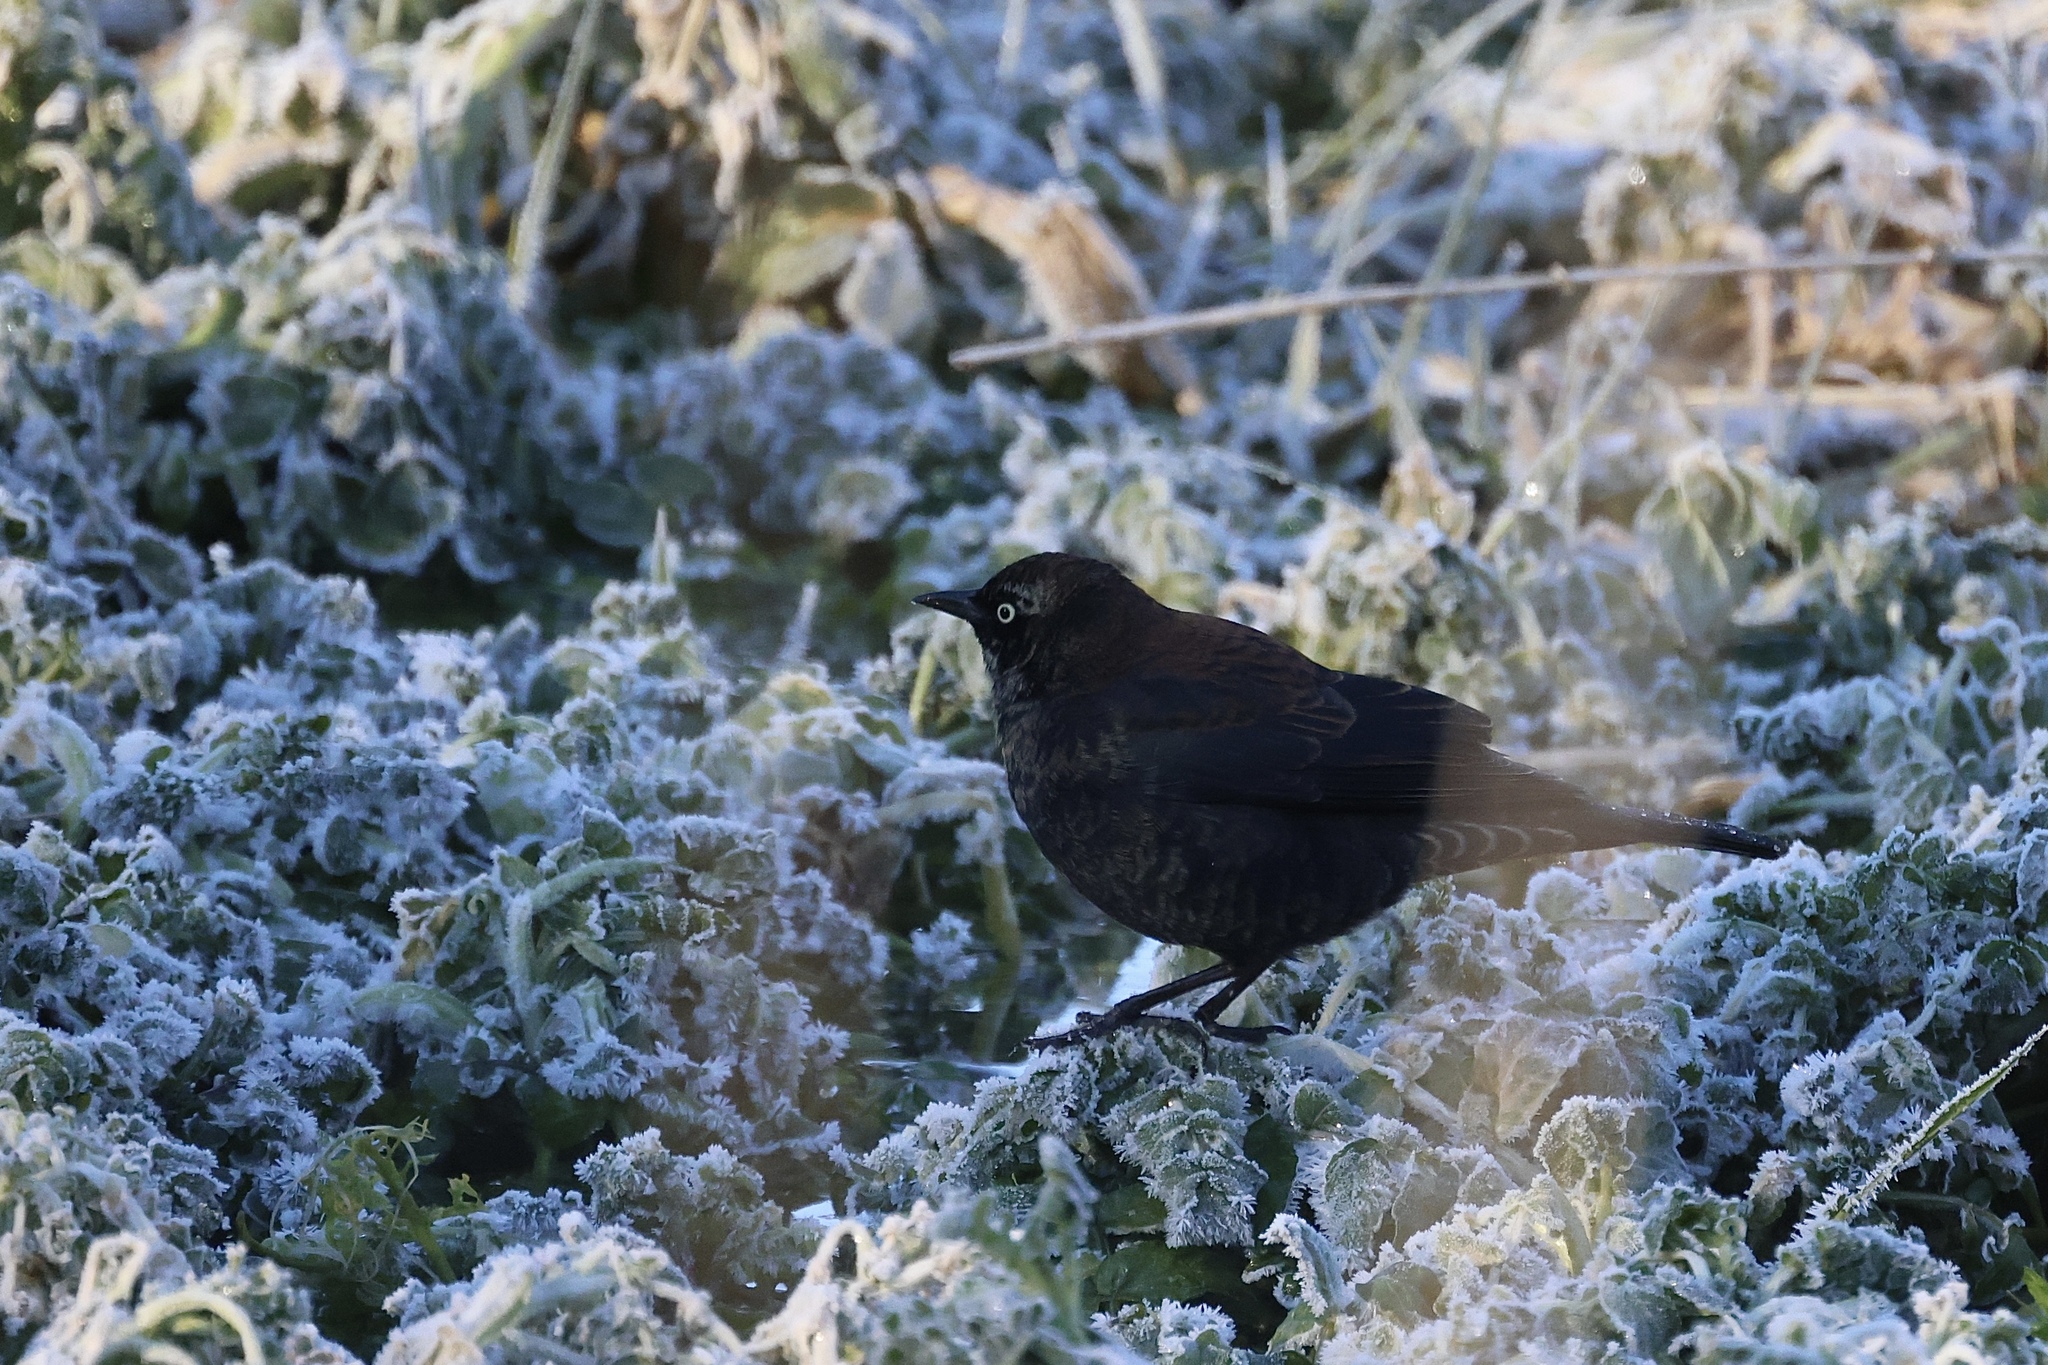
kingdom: Animalia
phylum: Chordata
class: Aves
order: Passeriformes
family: Icteridae
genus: Euphagus
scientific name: Euphagus carolinus
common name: Rusty blackbird
